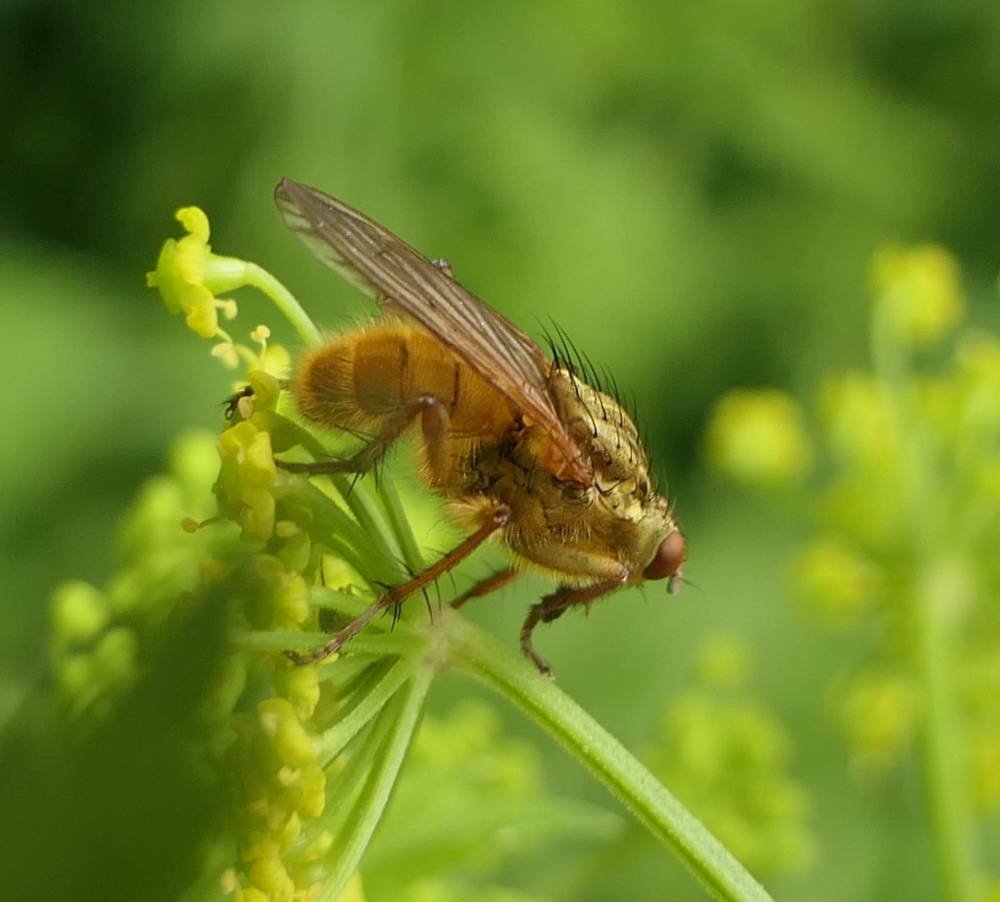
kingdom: Animalia
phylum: Arthropoda
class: Insecta
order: Diptera
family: Scathophagidae
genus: Scathophaga
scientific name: Scathophaga stercoraria
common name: Yellow dung fly
